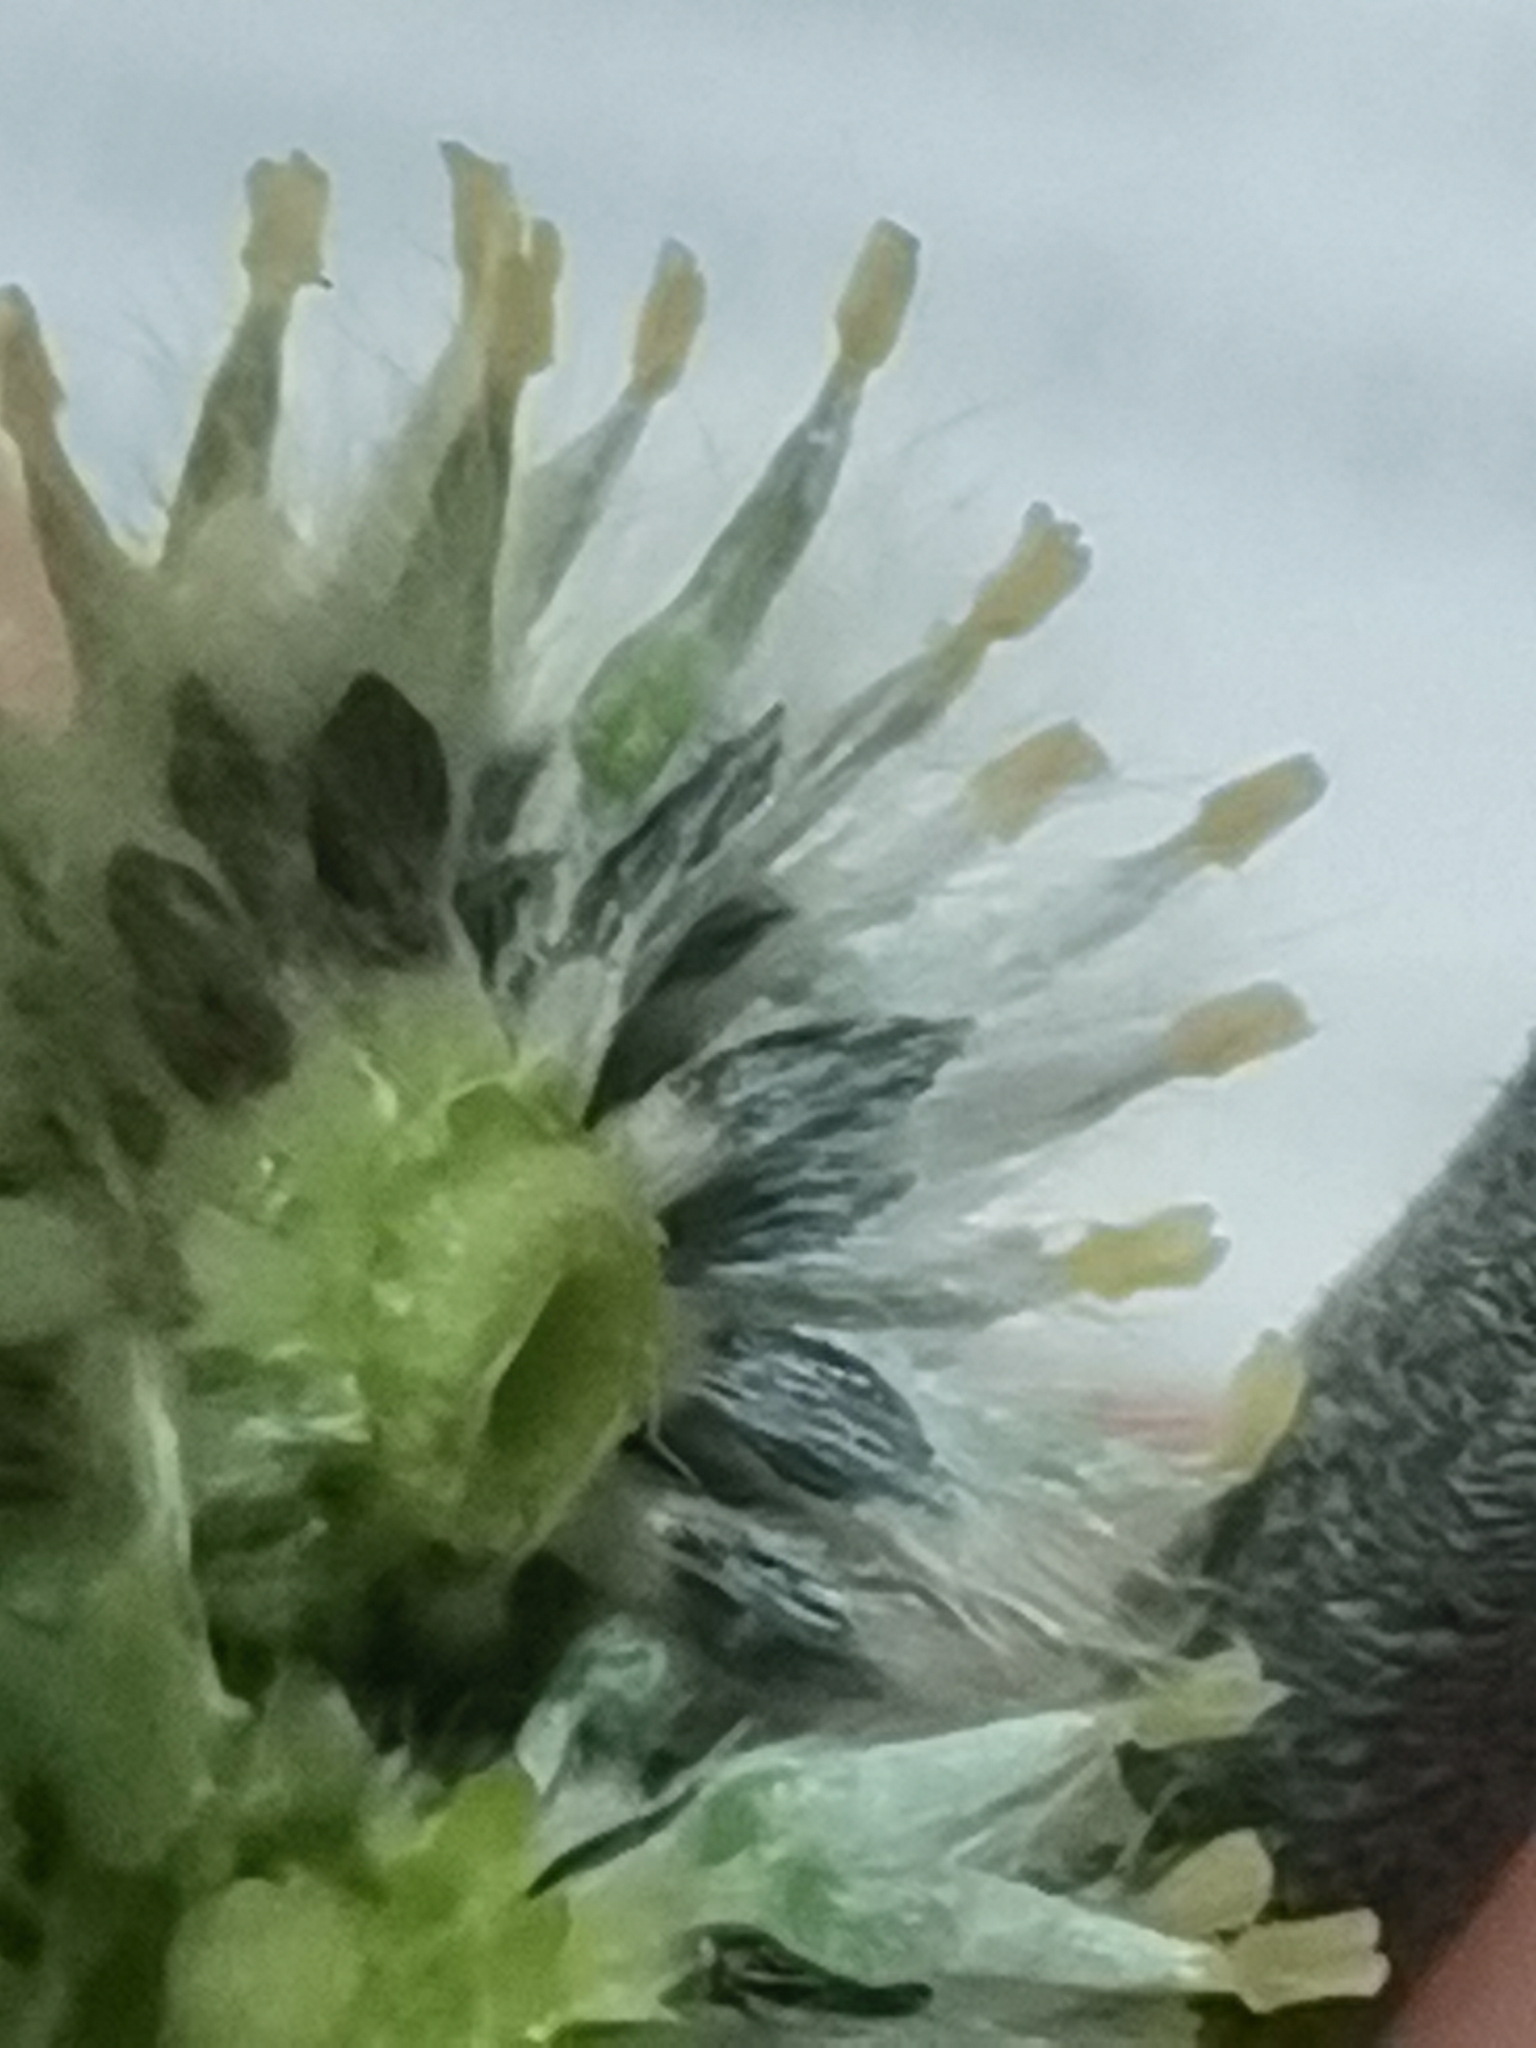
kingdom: Plantae
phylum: Tracheophyta
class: Magnoliopsida
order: Malpighiales
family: Salicaceae
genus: Salix
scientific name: Salix caprea
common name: Goat willow
